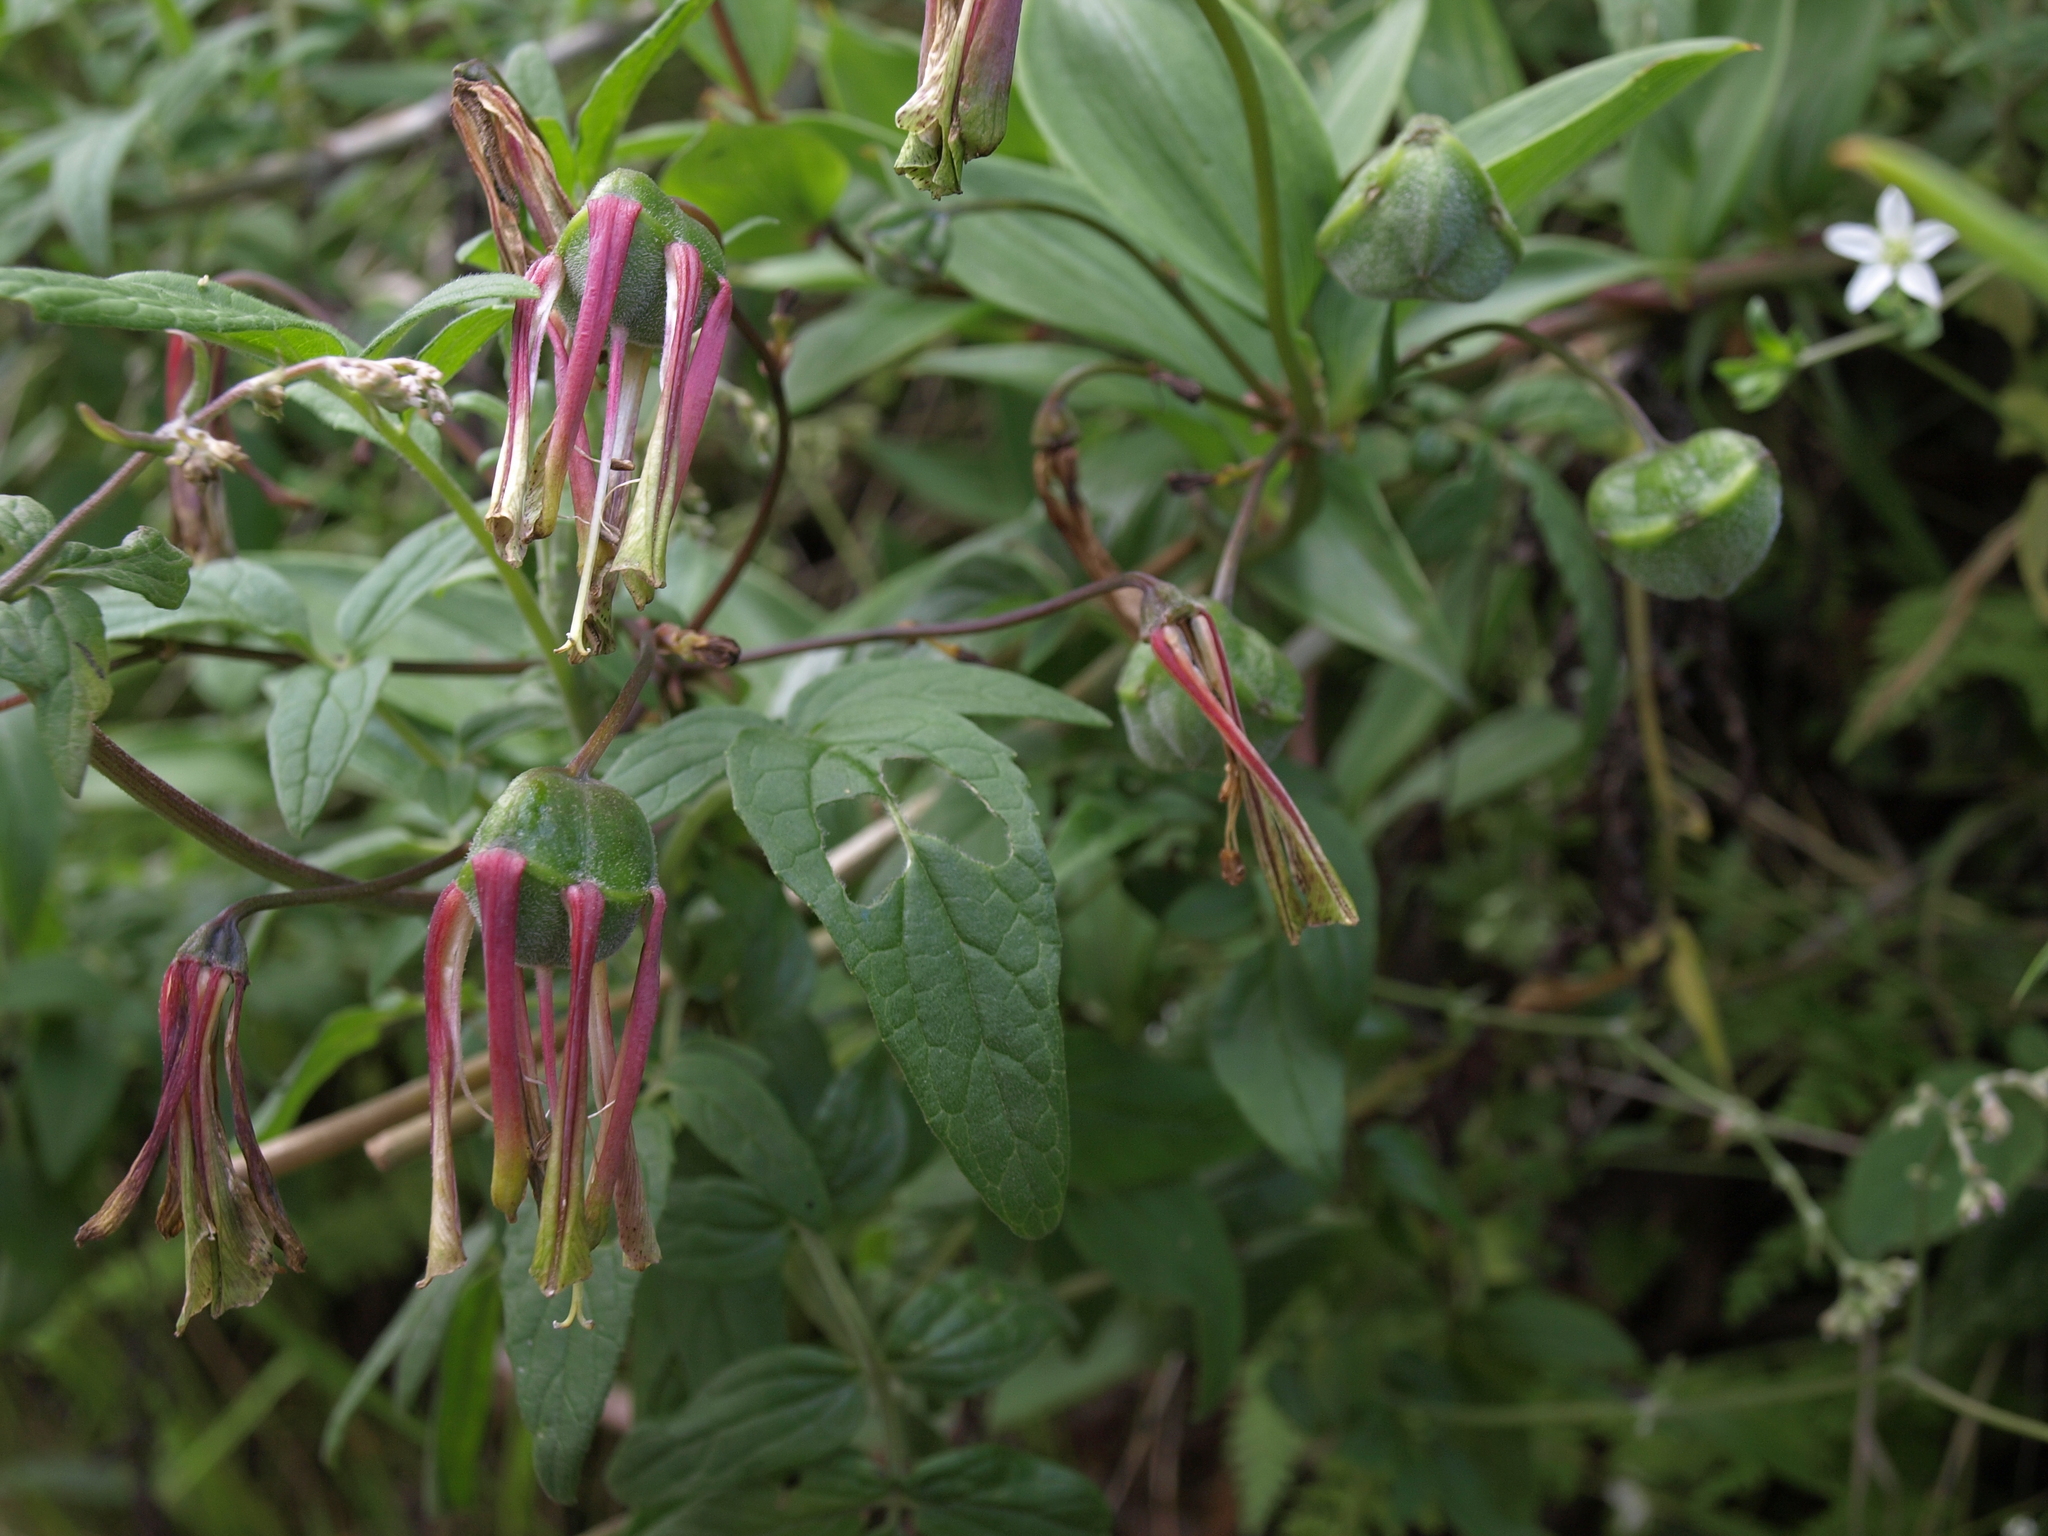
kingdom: Plantae
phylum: Tracheophyta
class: Liliopsida
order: Liliales
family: Alstroemeriaceae
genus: Bomarea
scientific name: Bomarea edulis
